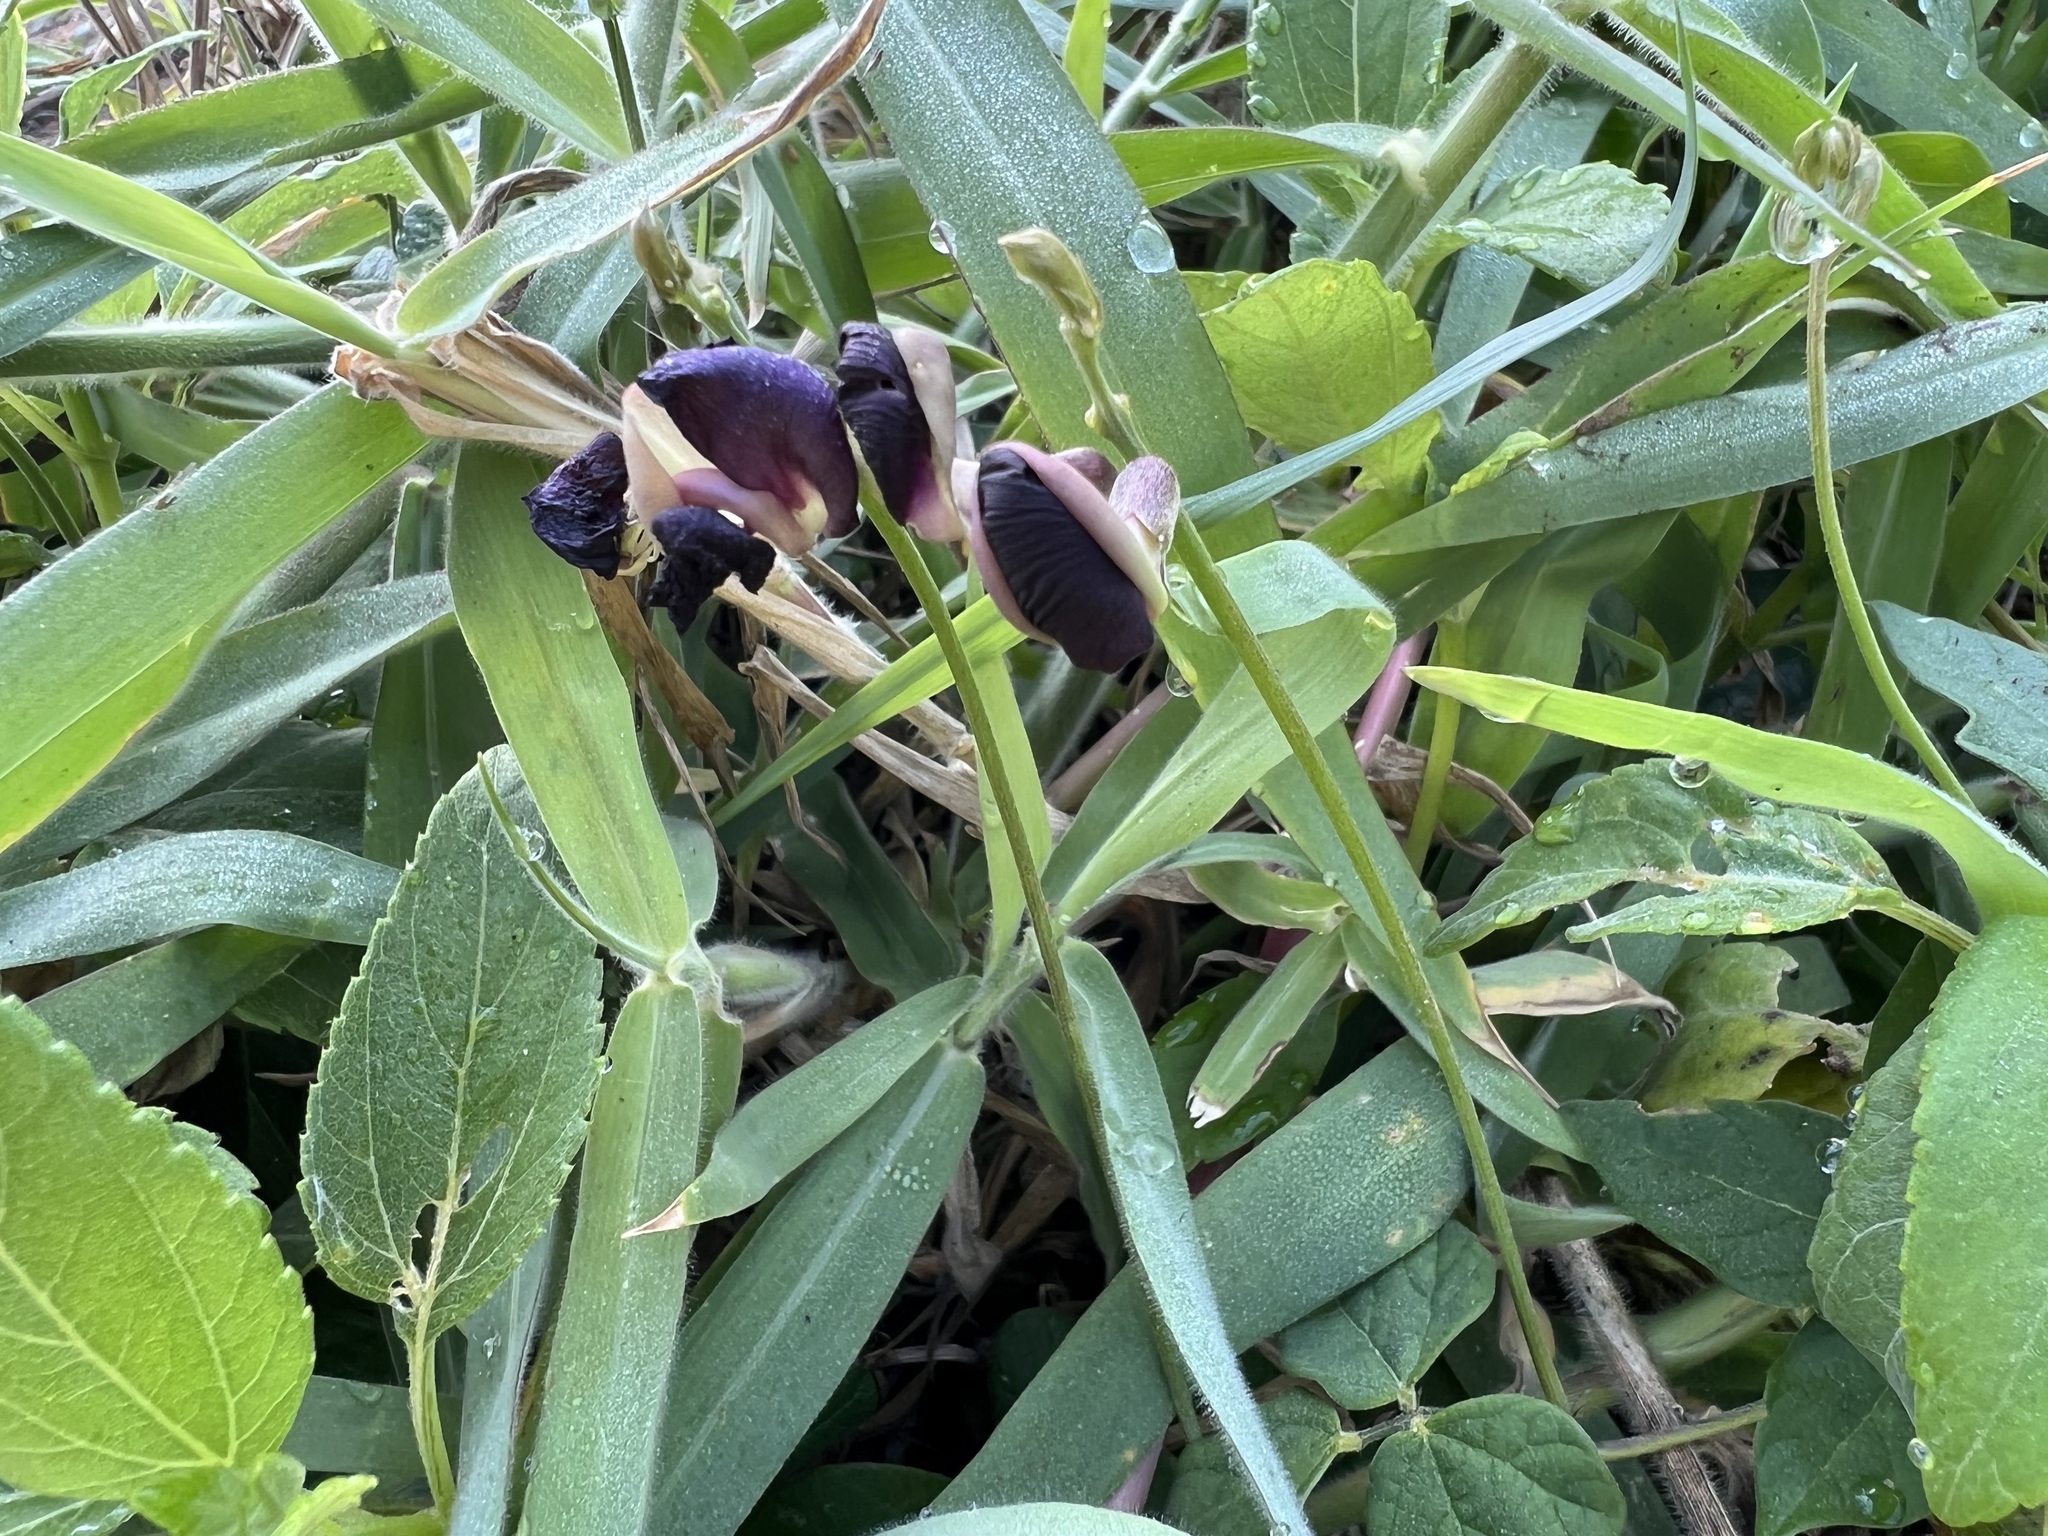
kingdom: Plantae
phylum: Tracheophyta
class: Magnoliopsida
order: Fabales
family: Fabaceae
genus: Macroptilium
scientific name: Macroptilium atropurpureum
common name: Purple bushbean
